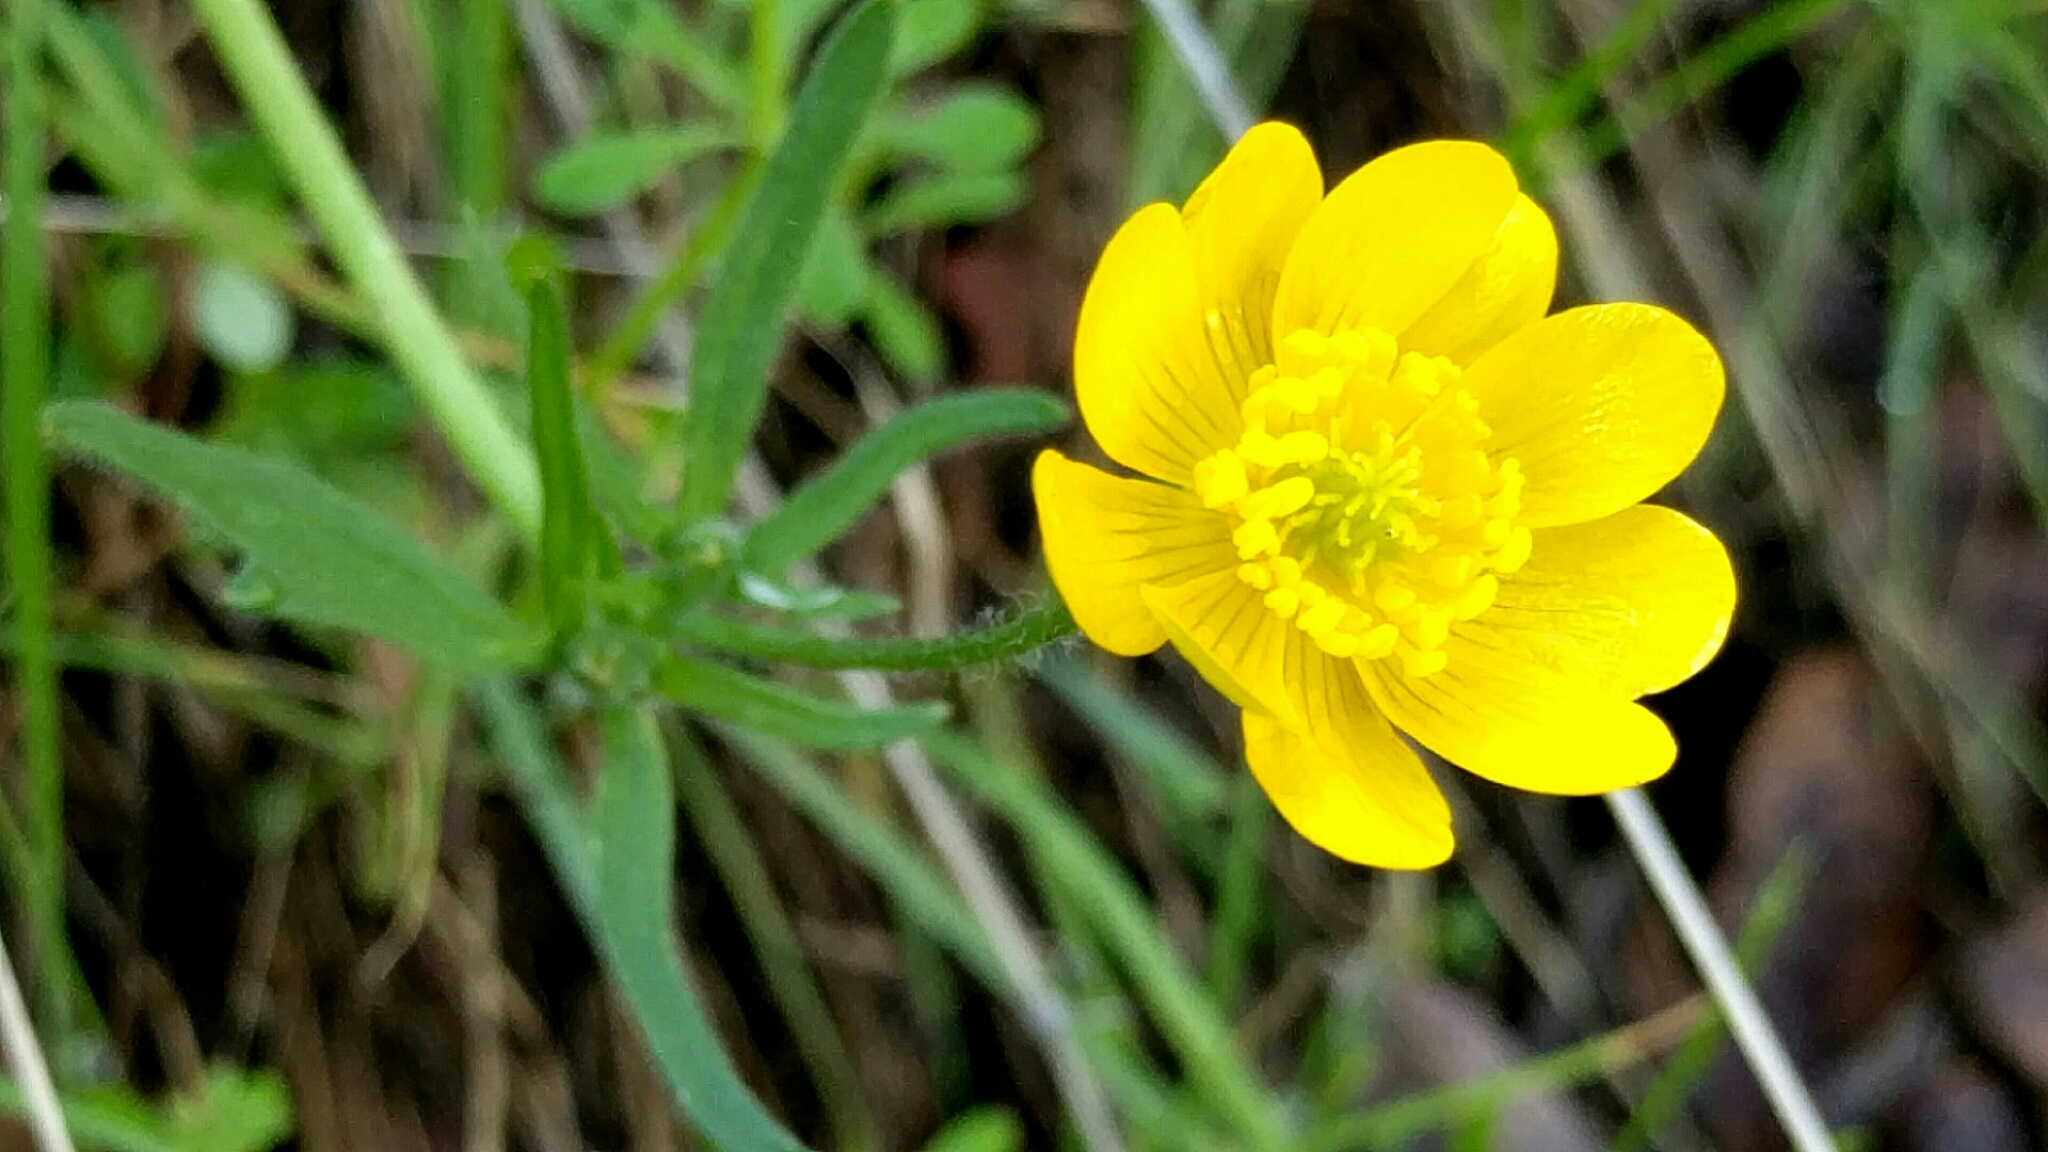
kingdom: Plantae
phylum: Tracheophyta
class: Magnoliopsida
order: Ranunculales
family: Ranunculaceae
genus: Ranunculus
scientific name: Ranunculus californicus
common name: California buttercup
